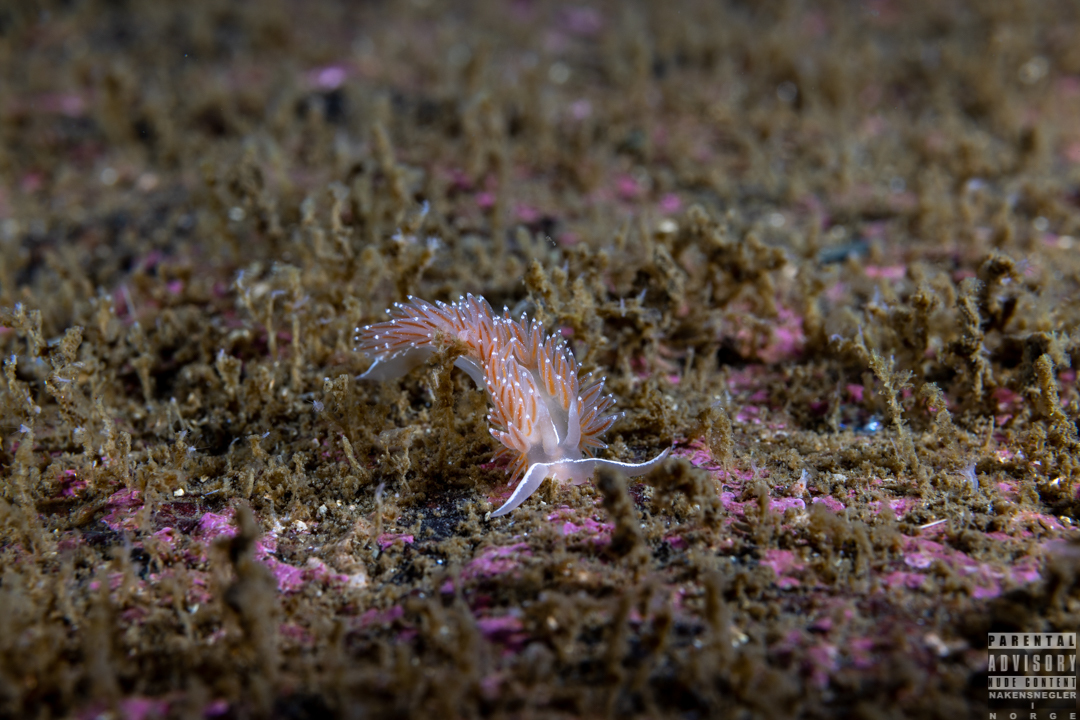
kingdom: Animalia
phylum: Mollusca
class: Gastropoda
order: Nudibranchia
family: Coryphellidae
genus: Coryphella
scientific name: Coryphella monicae
